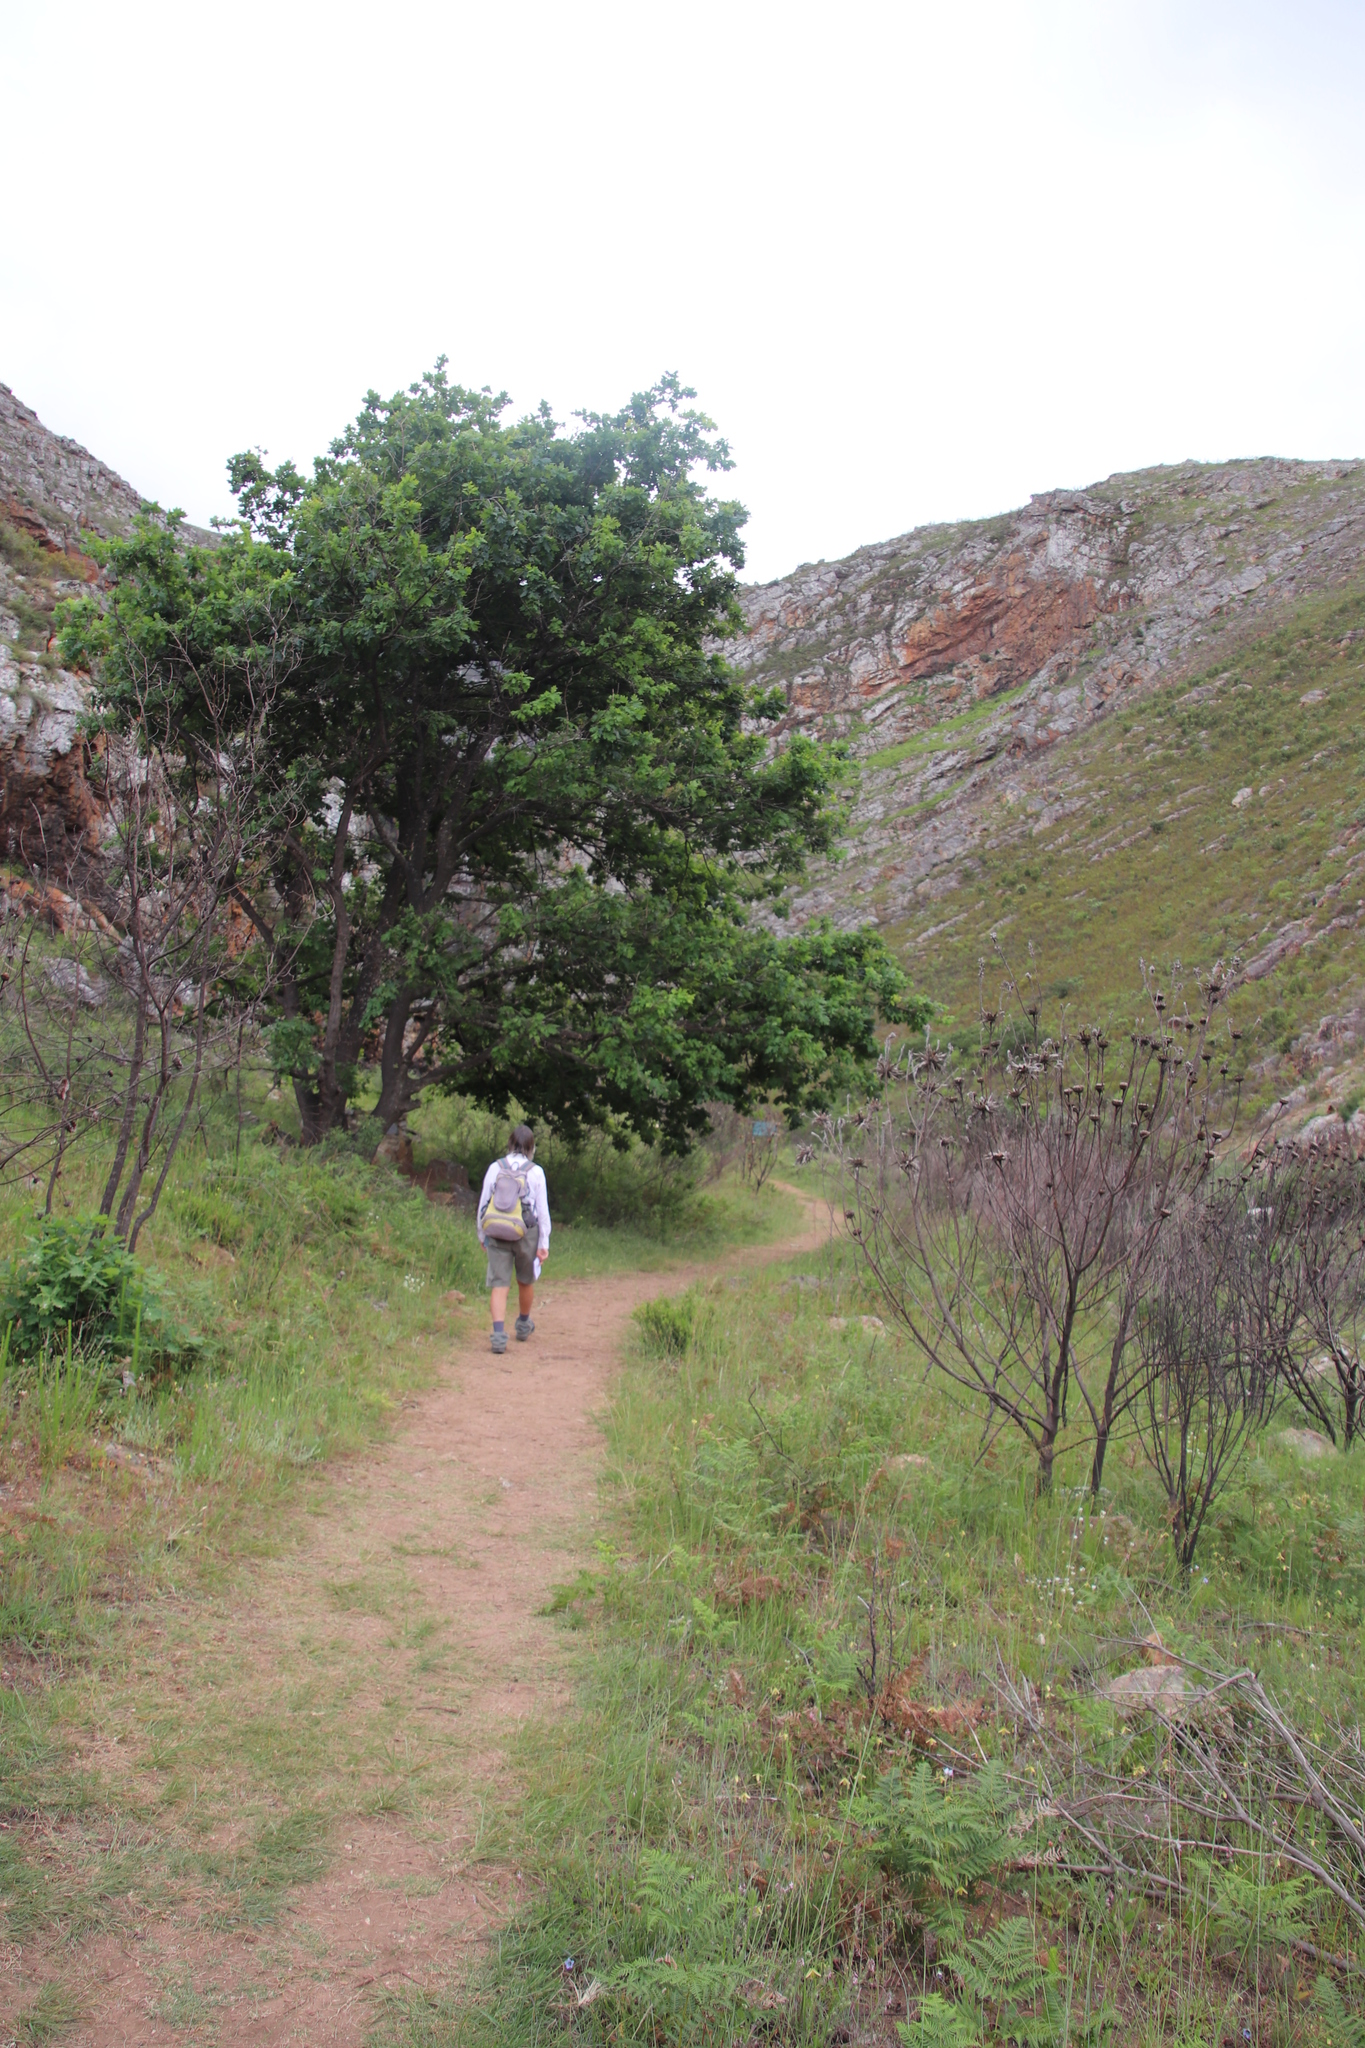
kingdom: Plantae
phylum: Tracheophyta
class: Magnoliopsida
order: Fagales
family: Fagaceae
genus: Quercus
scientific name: Quercus robur
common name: Pedunculate oak
